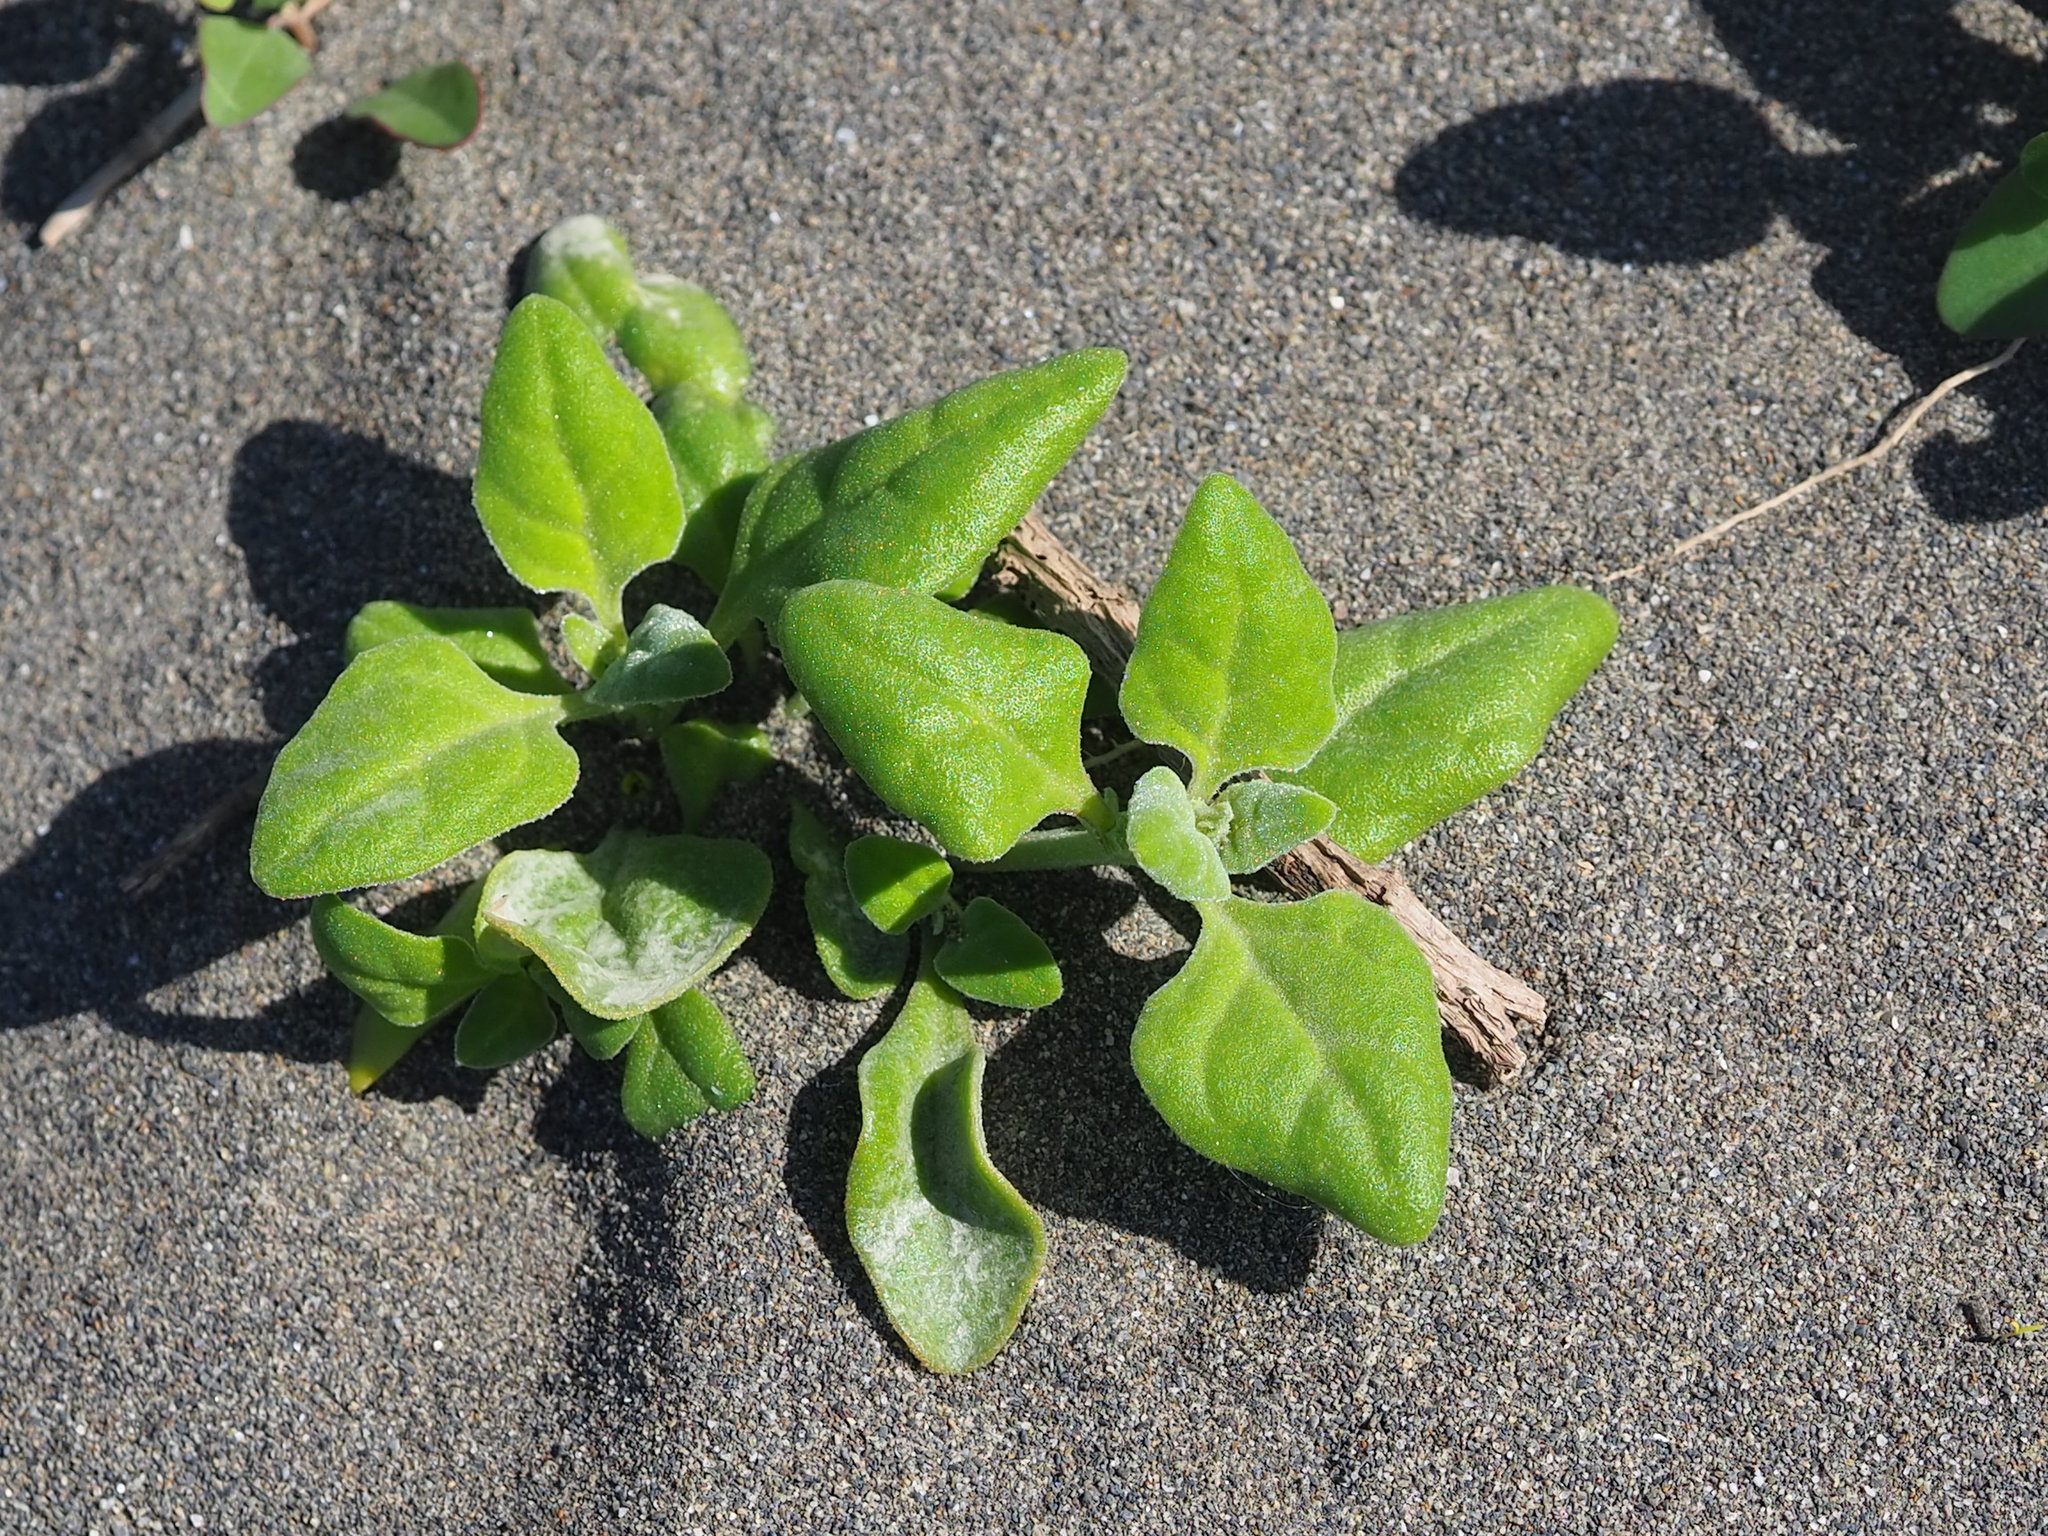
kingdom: Plantae
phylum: Tracheophyta
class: Magnoliopsida
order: Caryophyllales
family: Aizoaceae
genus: Tetragonia
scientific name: Tetragonia tetragonoides
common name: New zealand-spinach
